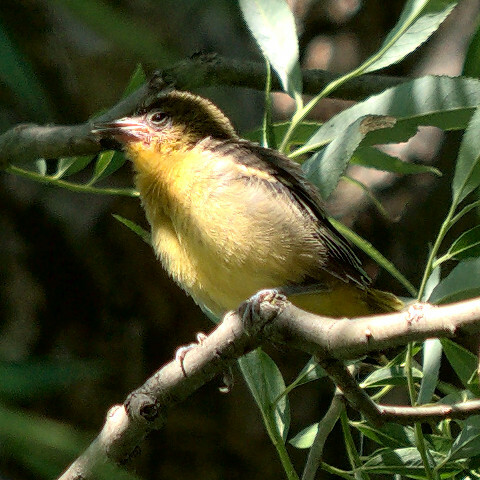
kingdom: Animalia
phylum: Chordata
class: Aves
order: Passeriformes
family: Icteridae
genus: Icterus
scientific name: Icterus galbula
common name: Baltimore oriole
